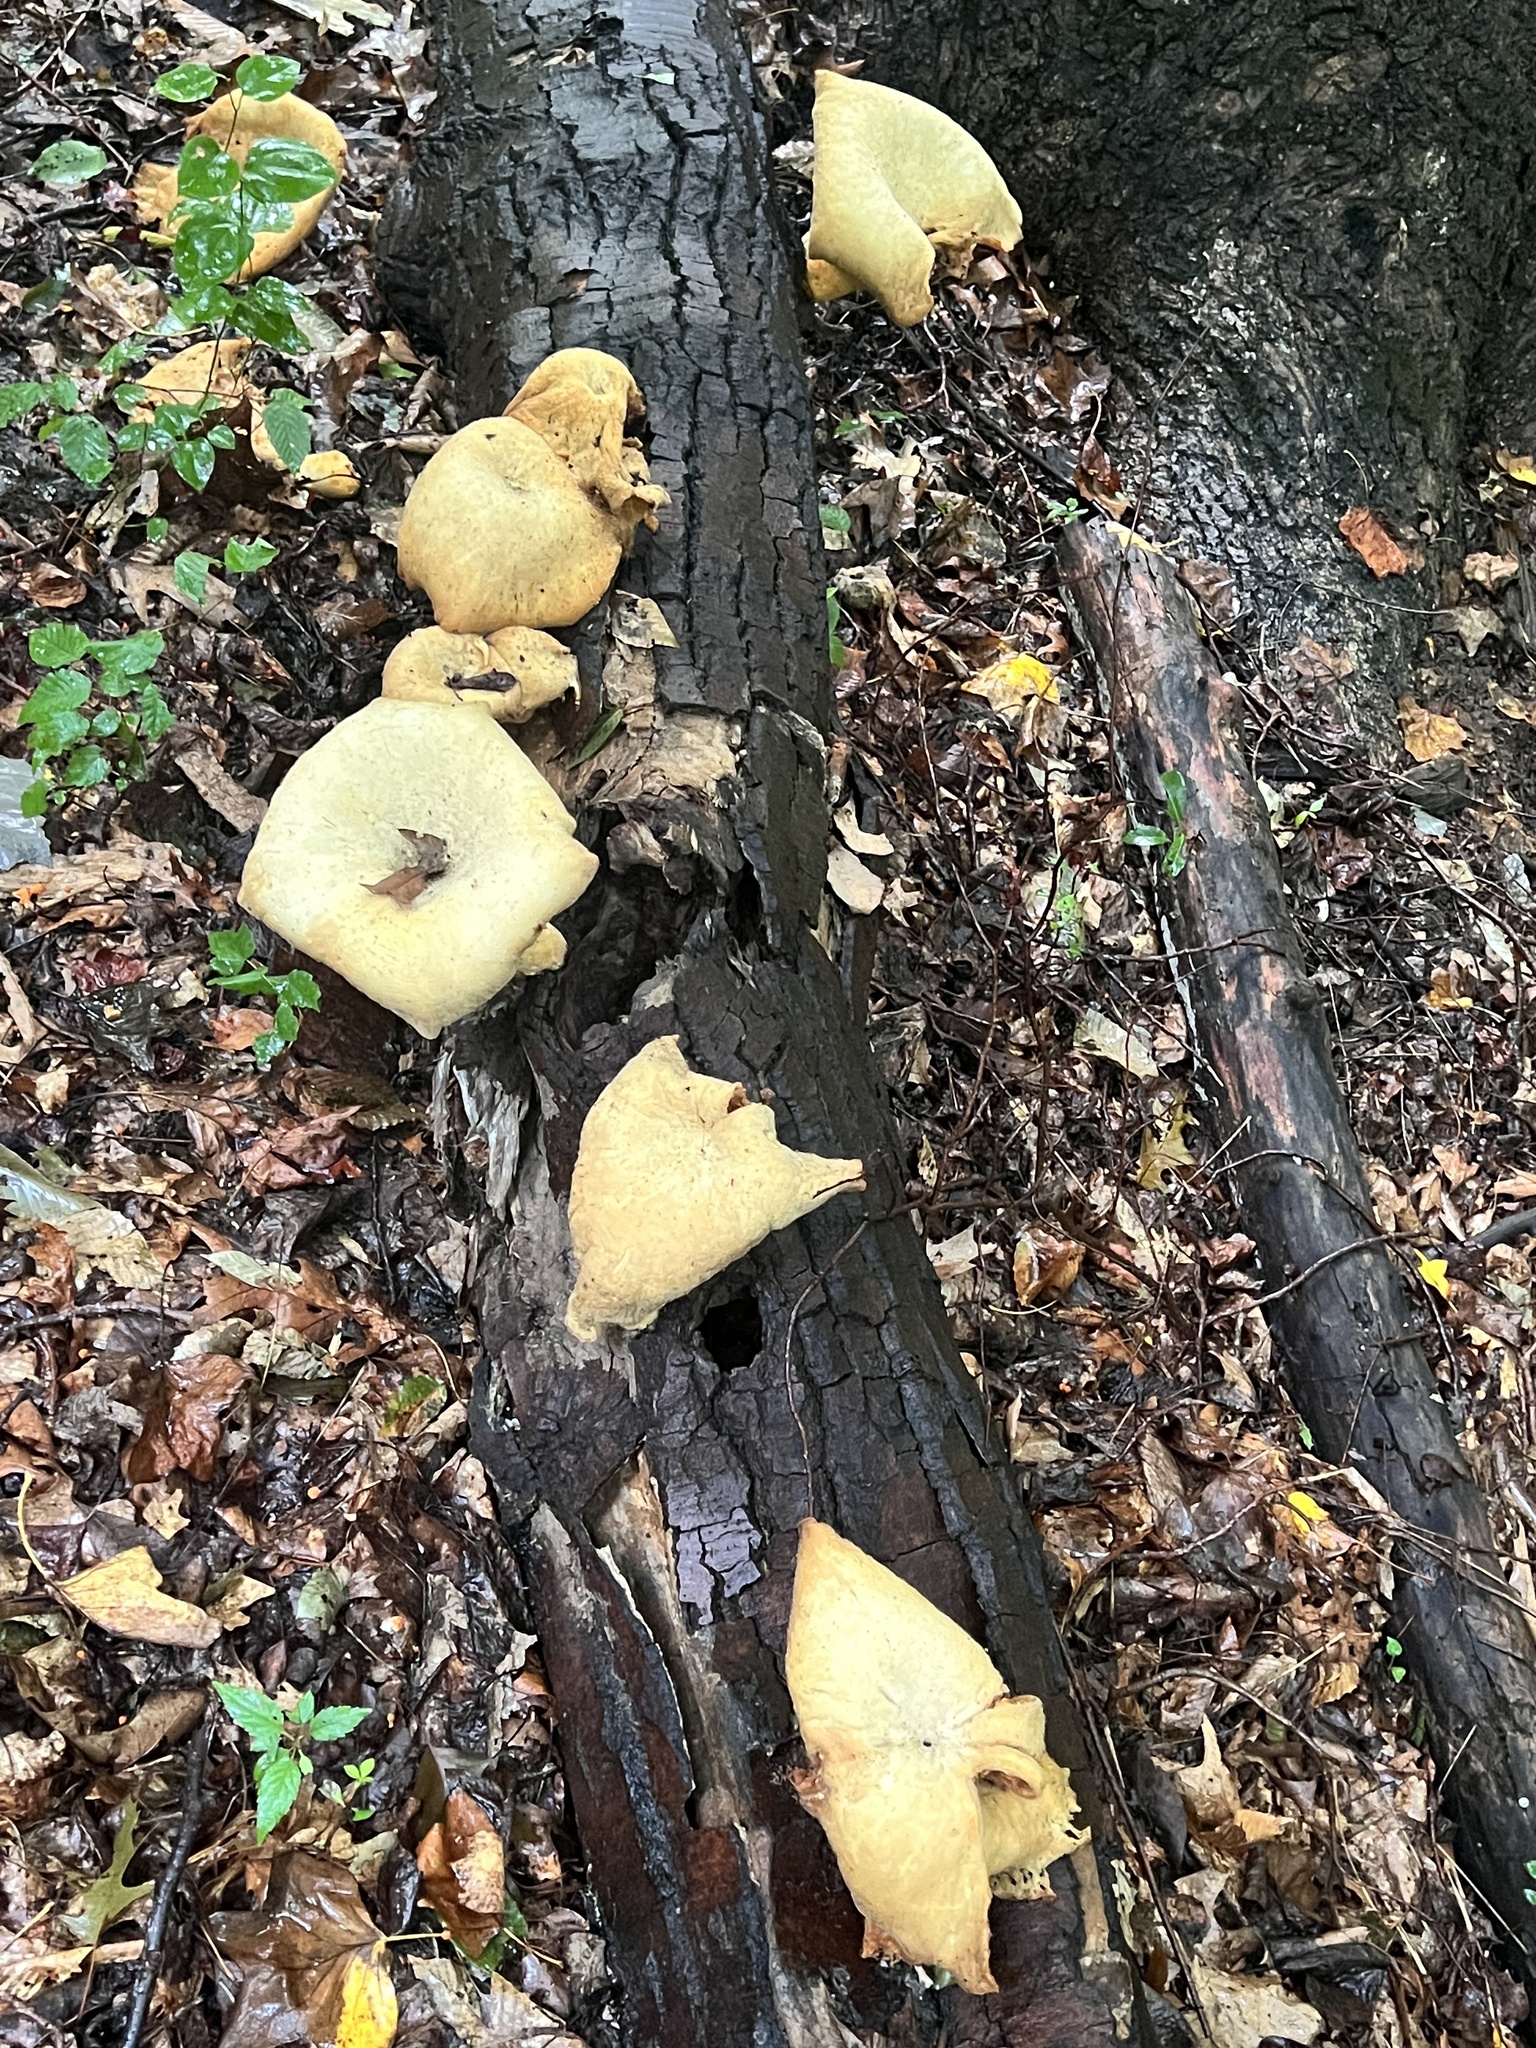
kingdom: Fungi
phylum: Basidiomycota
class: Agaricomycetes
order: Polyporales
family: Polyporaceae
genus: Lentinus
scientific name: Lentinus levis
